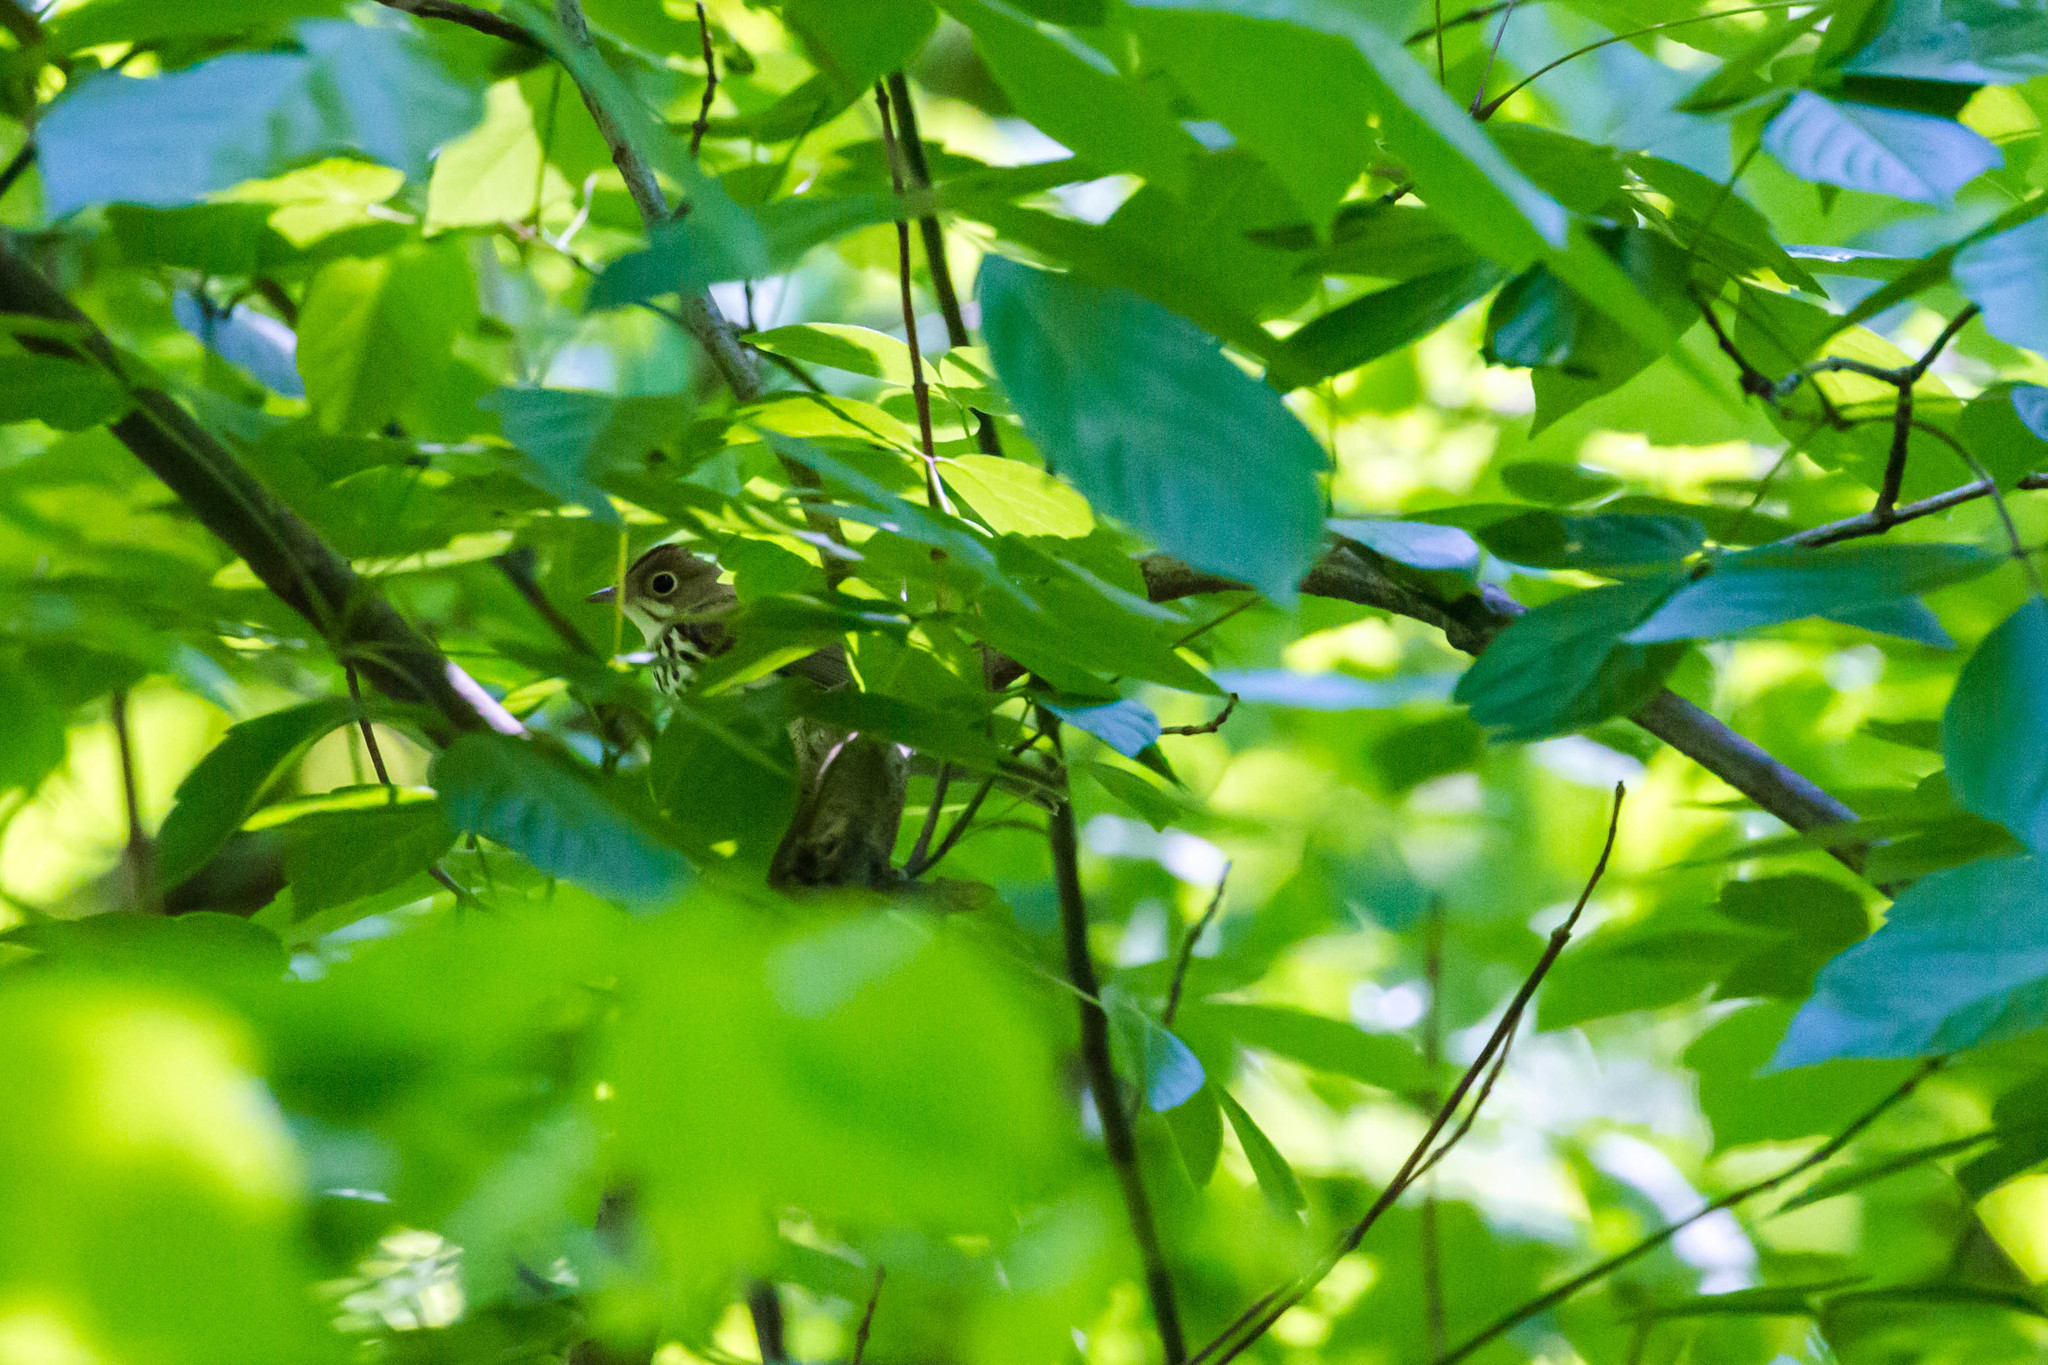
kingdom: Animalia
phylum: Chordata
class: Aves
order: Passeriformes
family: Parulidae
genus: Seiurus
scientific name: Seiurus aurocapilla
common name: Ovenbird
